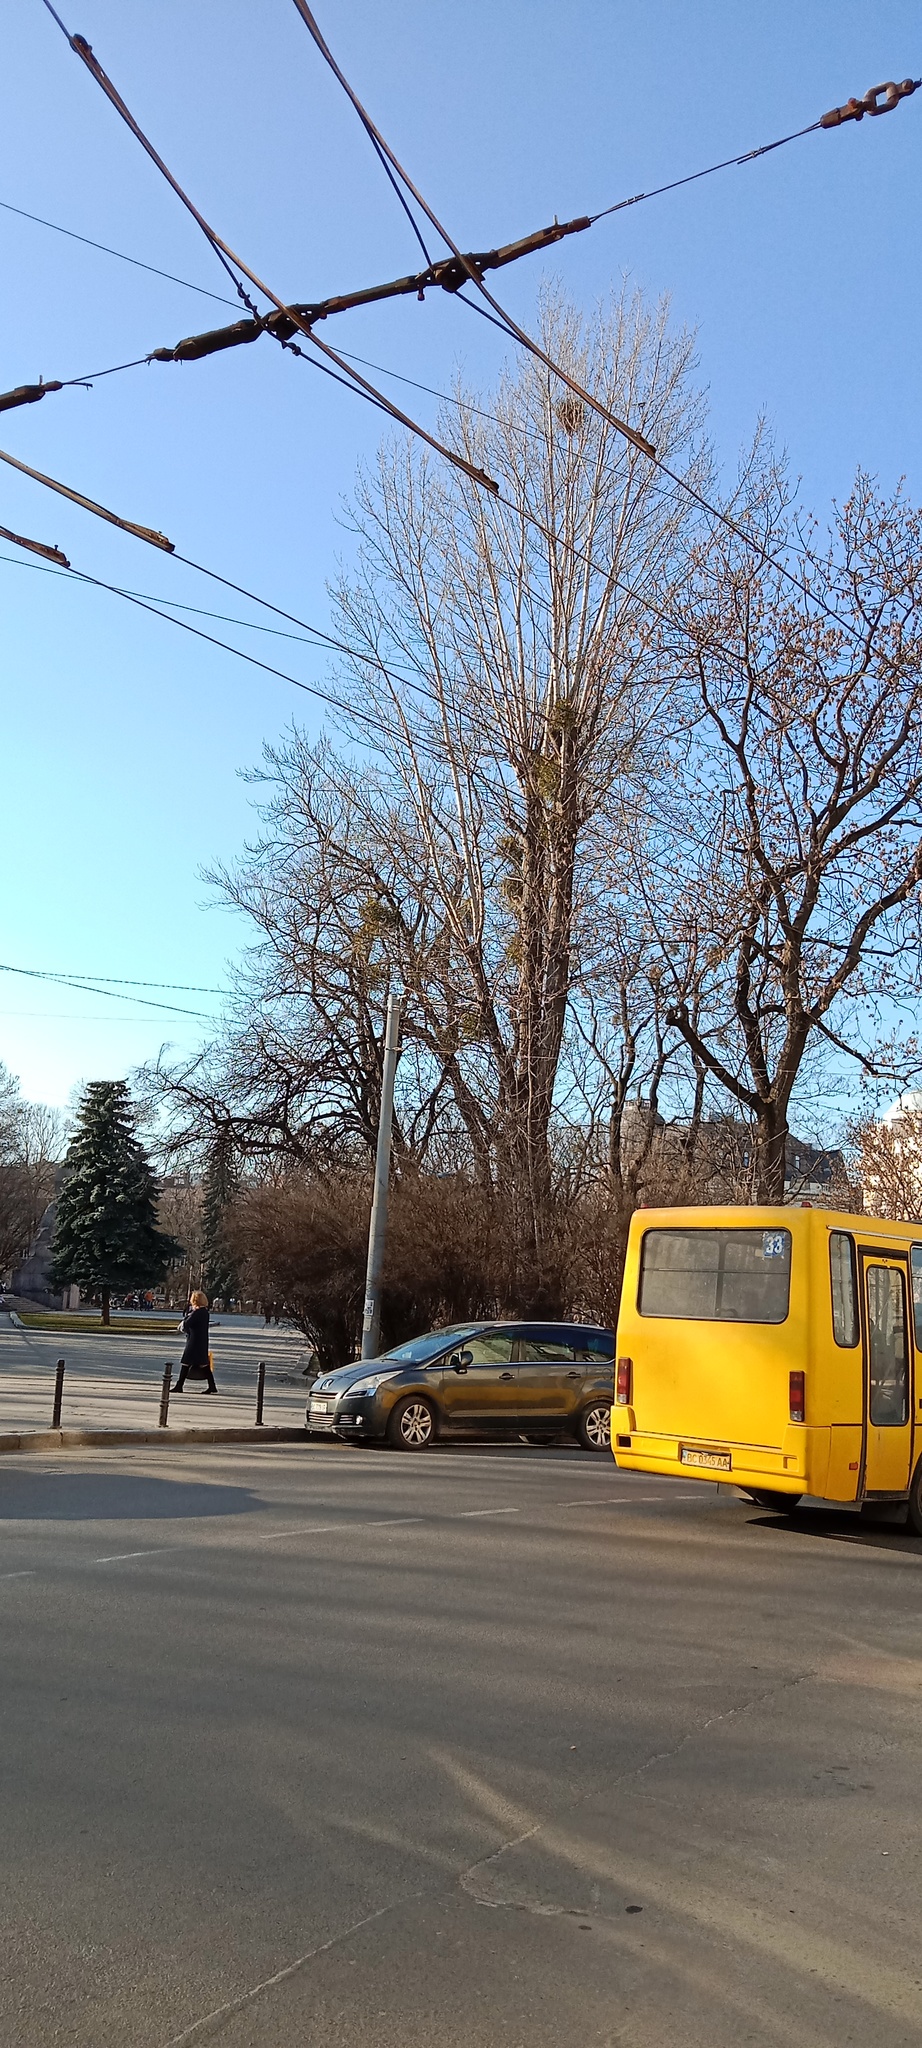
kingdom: Plantae
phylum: Tracheophyta
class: Magnoliopsida
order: Santalales
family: Viscaceae
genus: Viscum
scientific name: Viscum album
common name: Mistletoe
